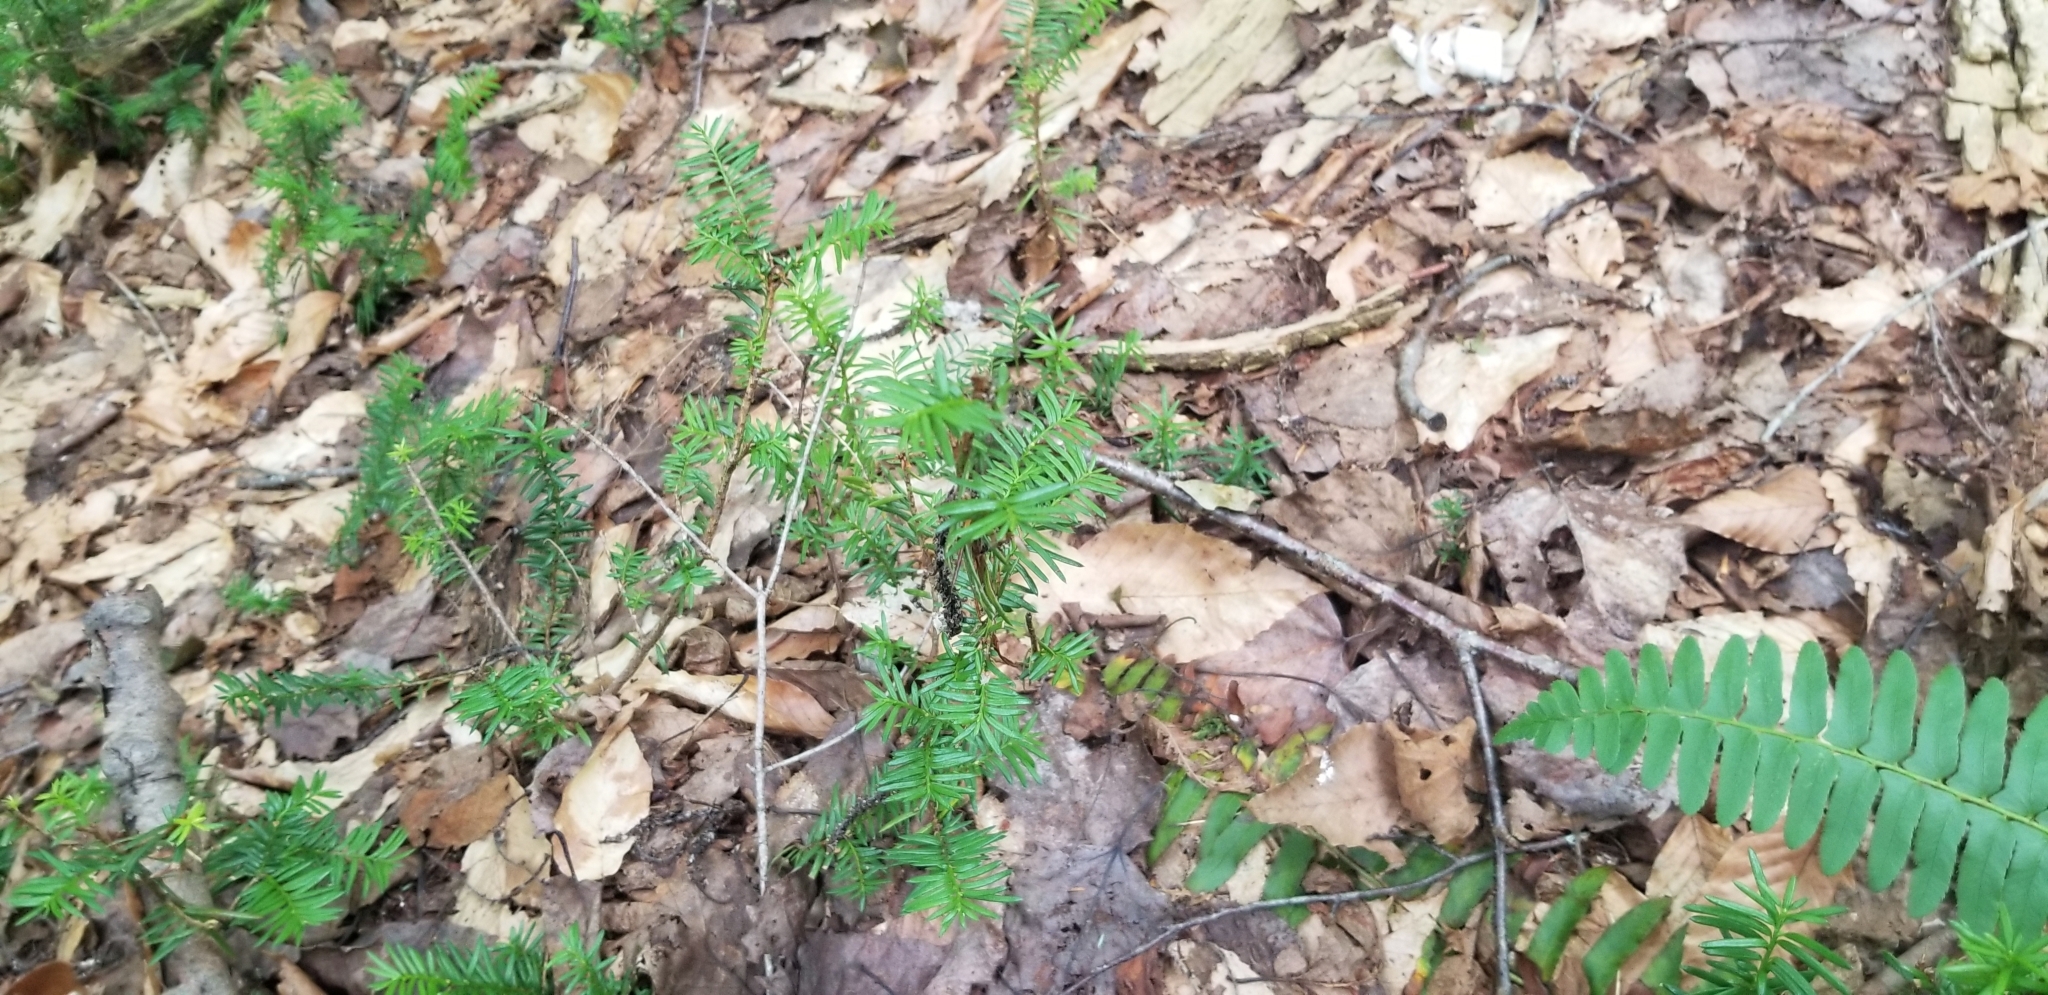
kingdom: Plantae
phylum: Tracheophyta
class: Pinopsida
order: Pinales
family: Taxaceae
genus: Taxus
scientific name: Taxus canadensis
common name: American yew
